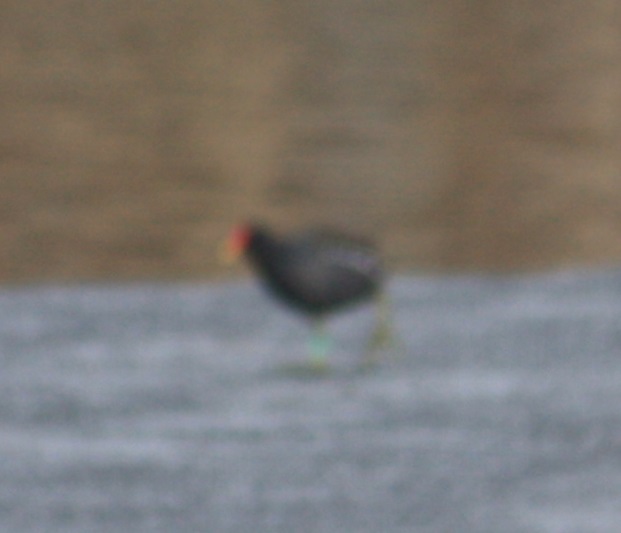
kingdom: Animalia
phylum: Chordata
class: Aves
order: Gruiformes
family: Rallidae
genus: Gallinula
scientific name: Gallinula chloropus
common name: Common moorhen
